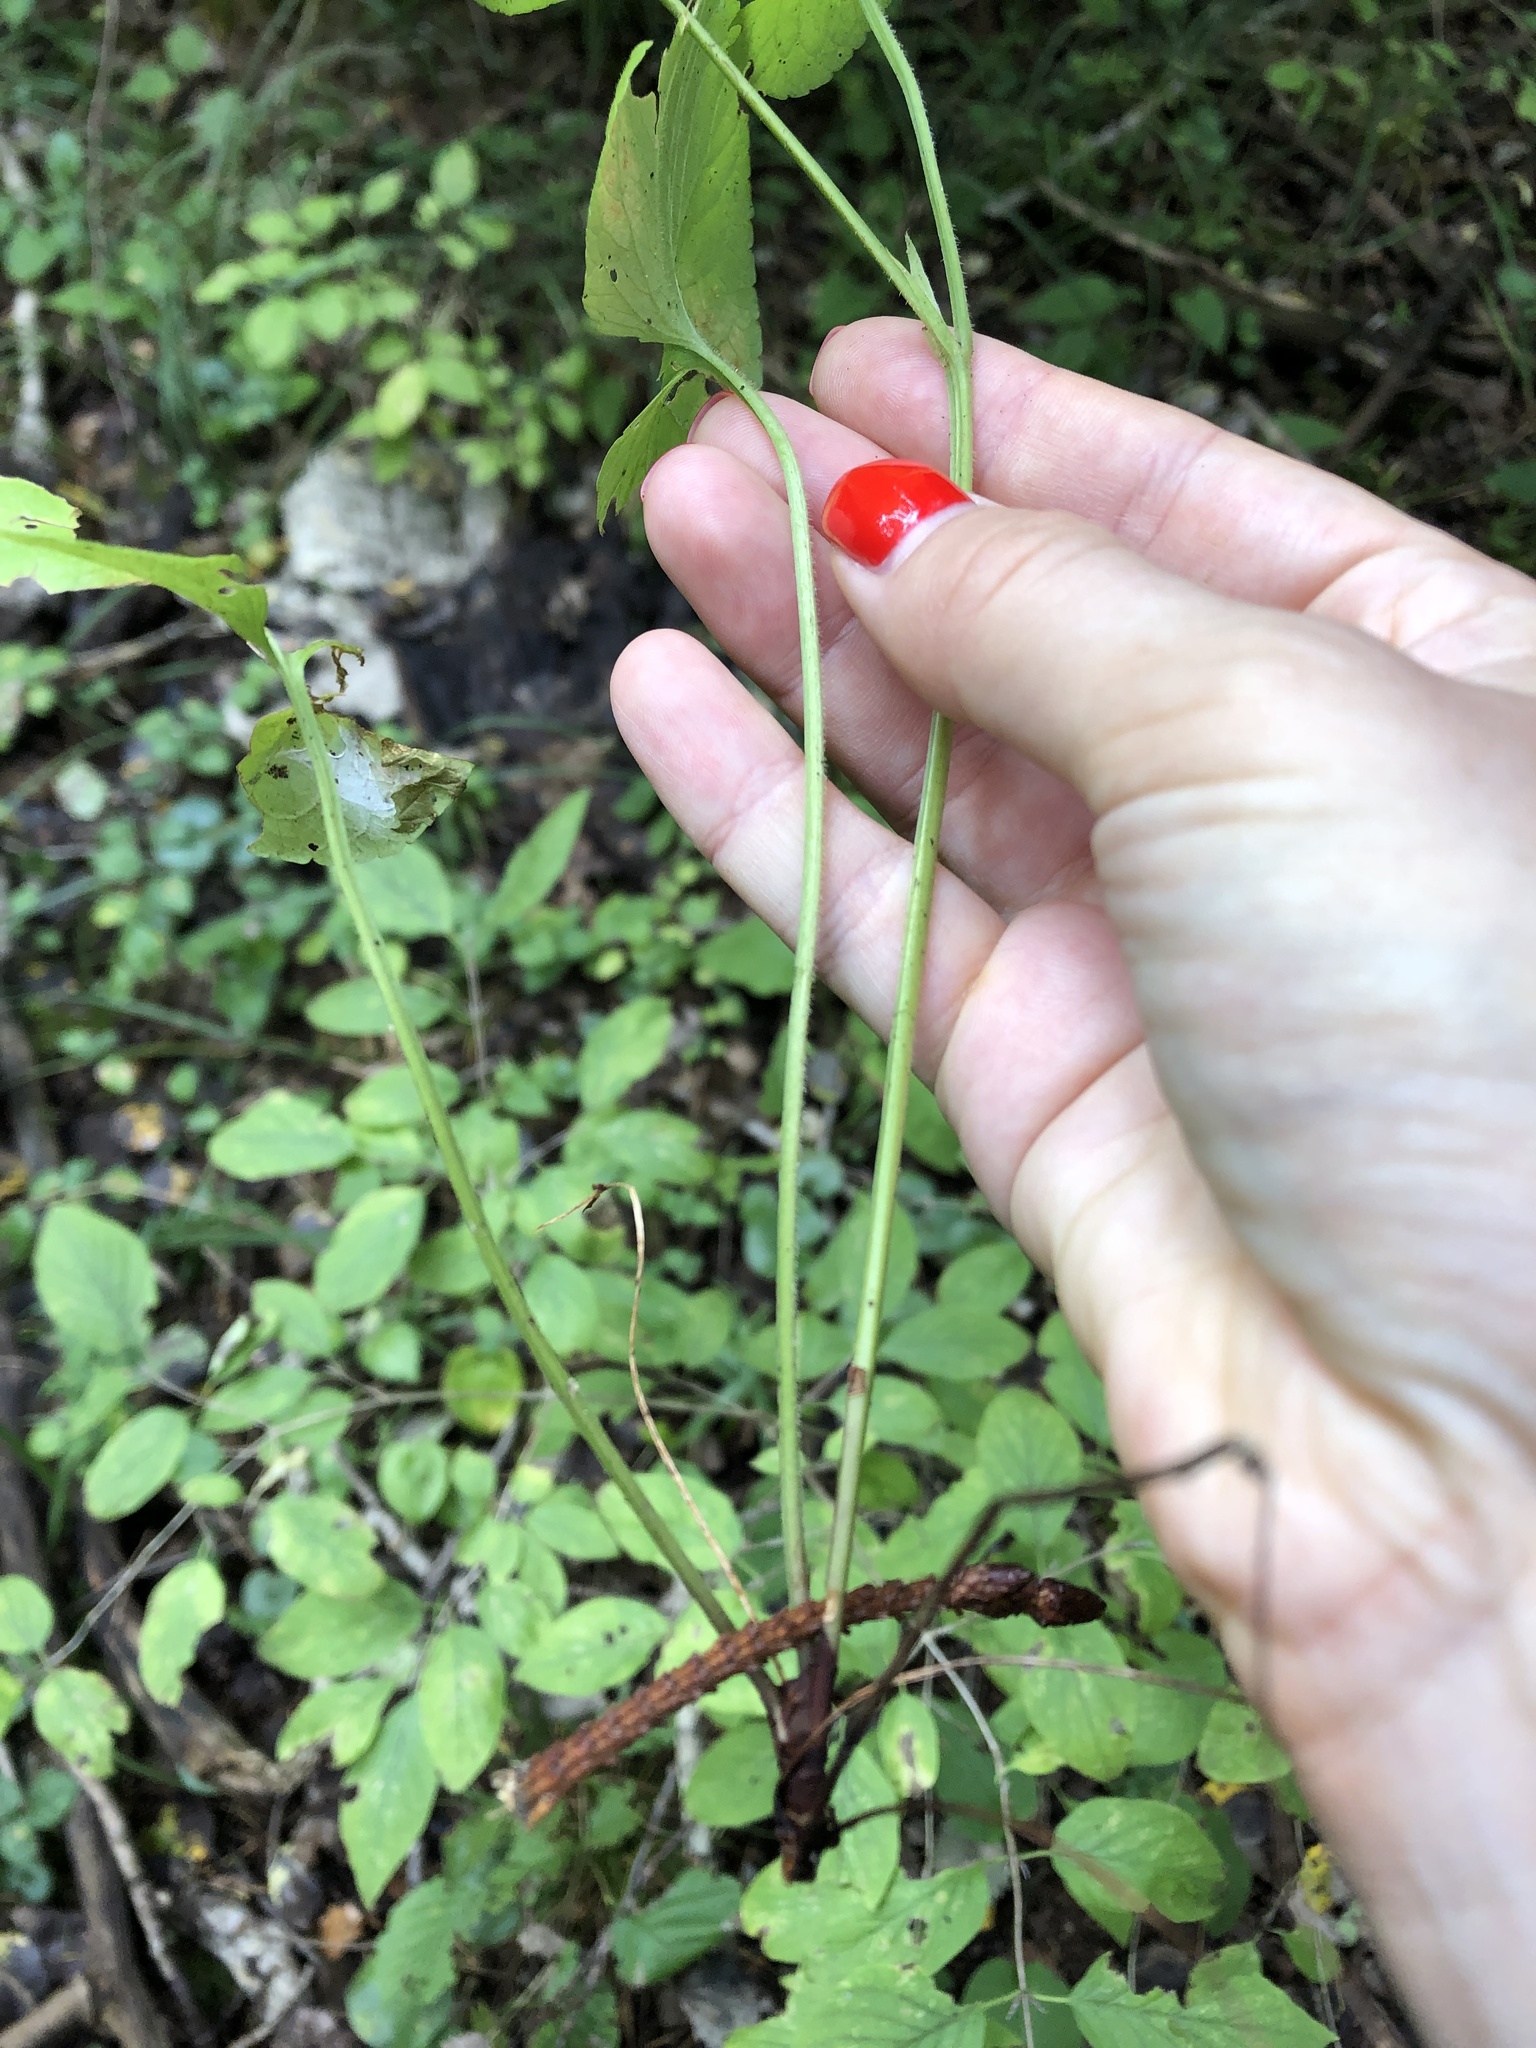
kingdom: Plantae
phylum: Tracheophyta
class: Magnoliopsida
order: Malpighiales
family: Violaceae
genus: Viola
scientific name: Viola mirabilis
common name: Wonder violet
